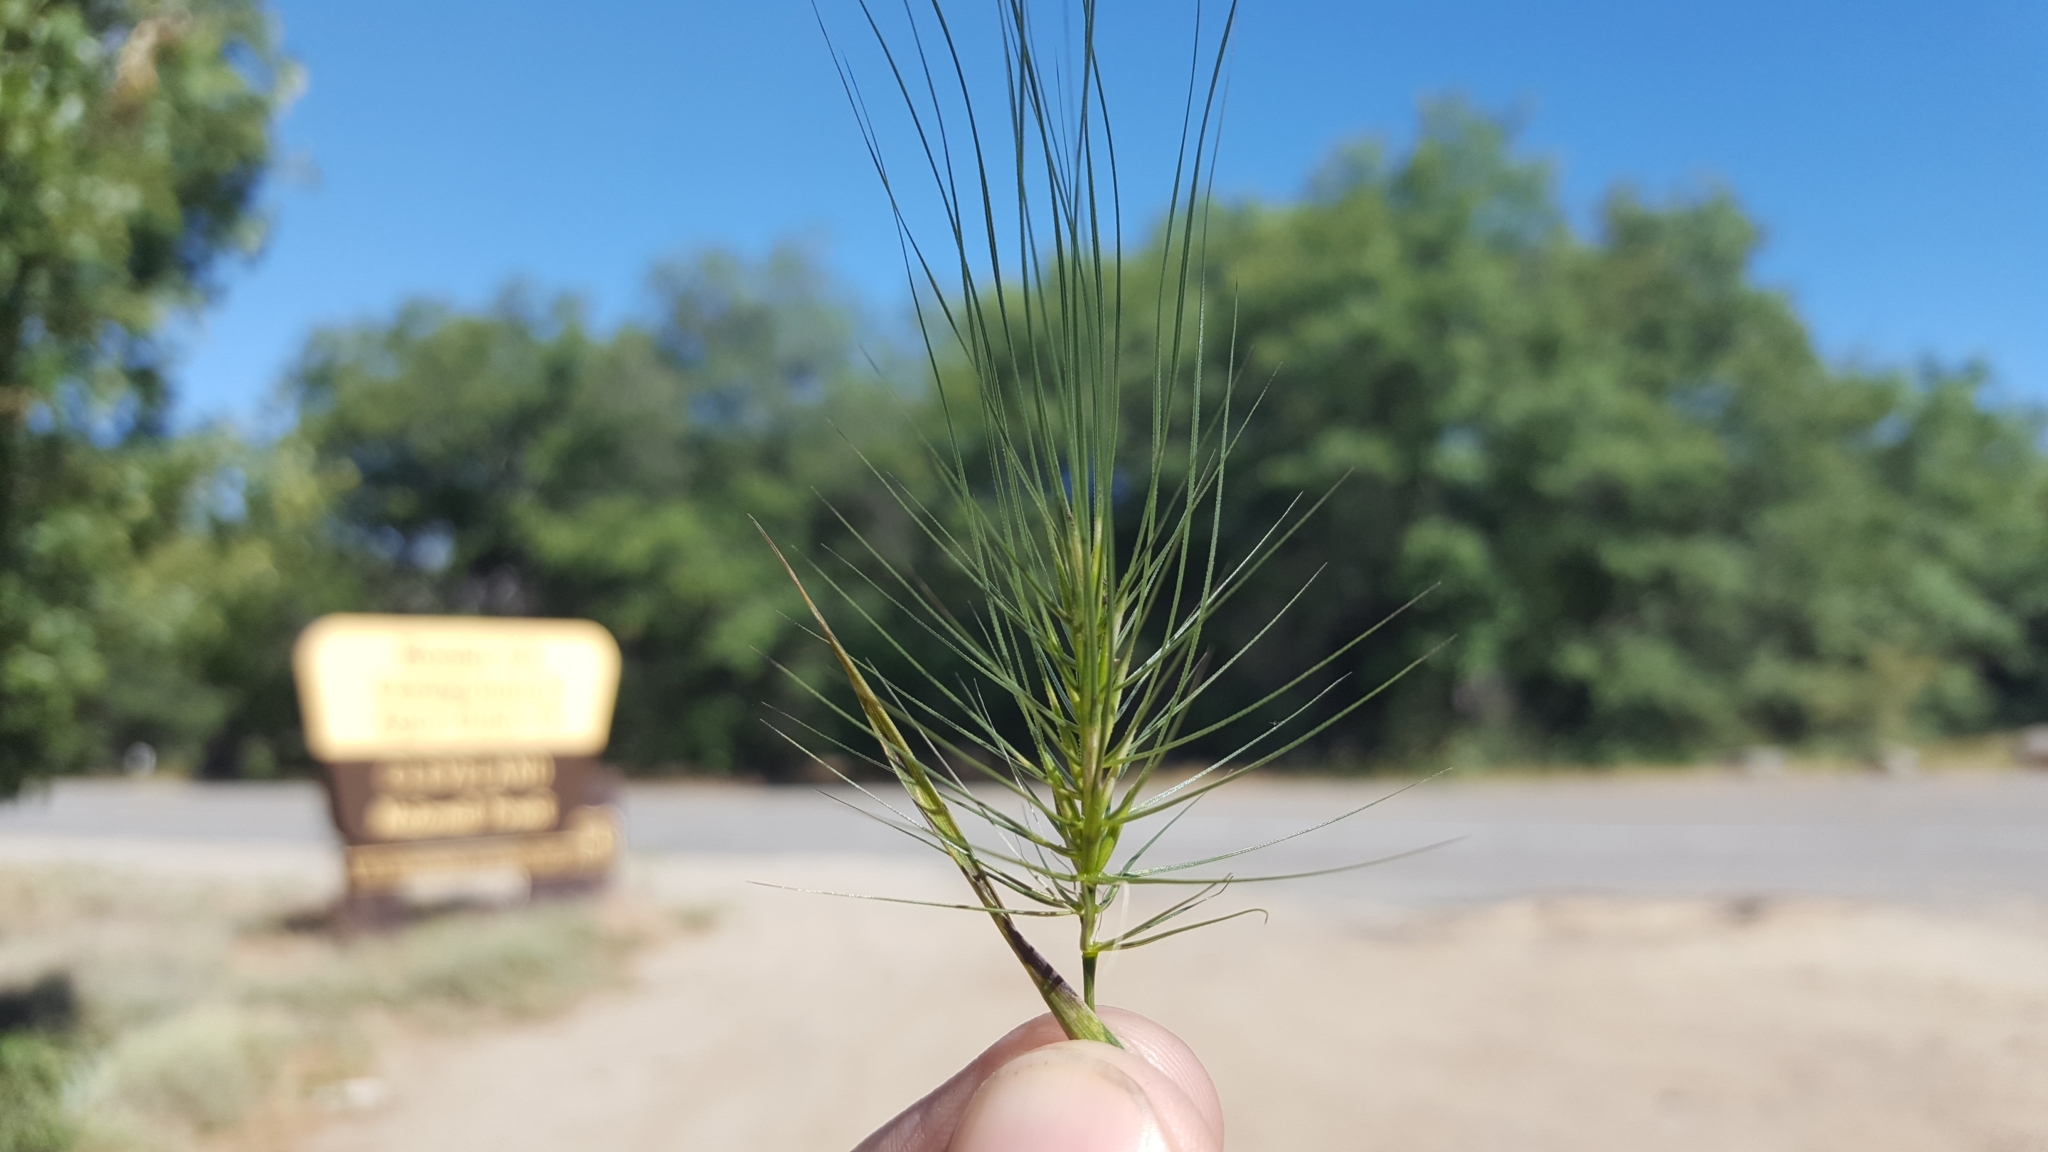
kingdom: Plantae
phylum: Tracheophyta
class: Liliopsida
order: Poales
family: Poaceae
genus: Taeniatherum
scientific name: Taeniatherum caput-medusae
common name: Medusahead
